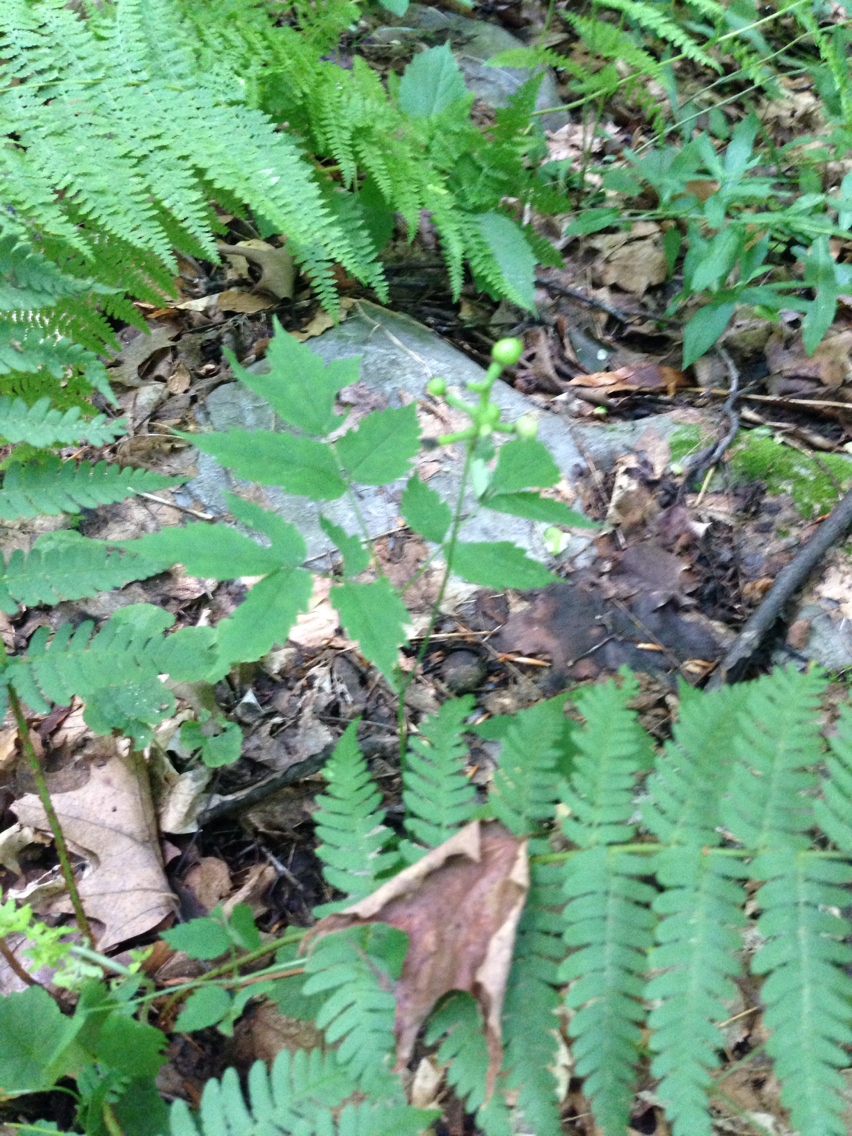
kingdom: Plantae
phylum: Tracheophyta
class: Magnoliopsida
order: Ranunculales
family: Ranunculaceae
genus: Actaea
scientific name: Actaea pachypoda
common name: Doll's-eyes
